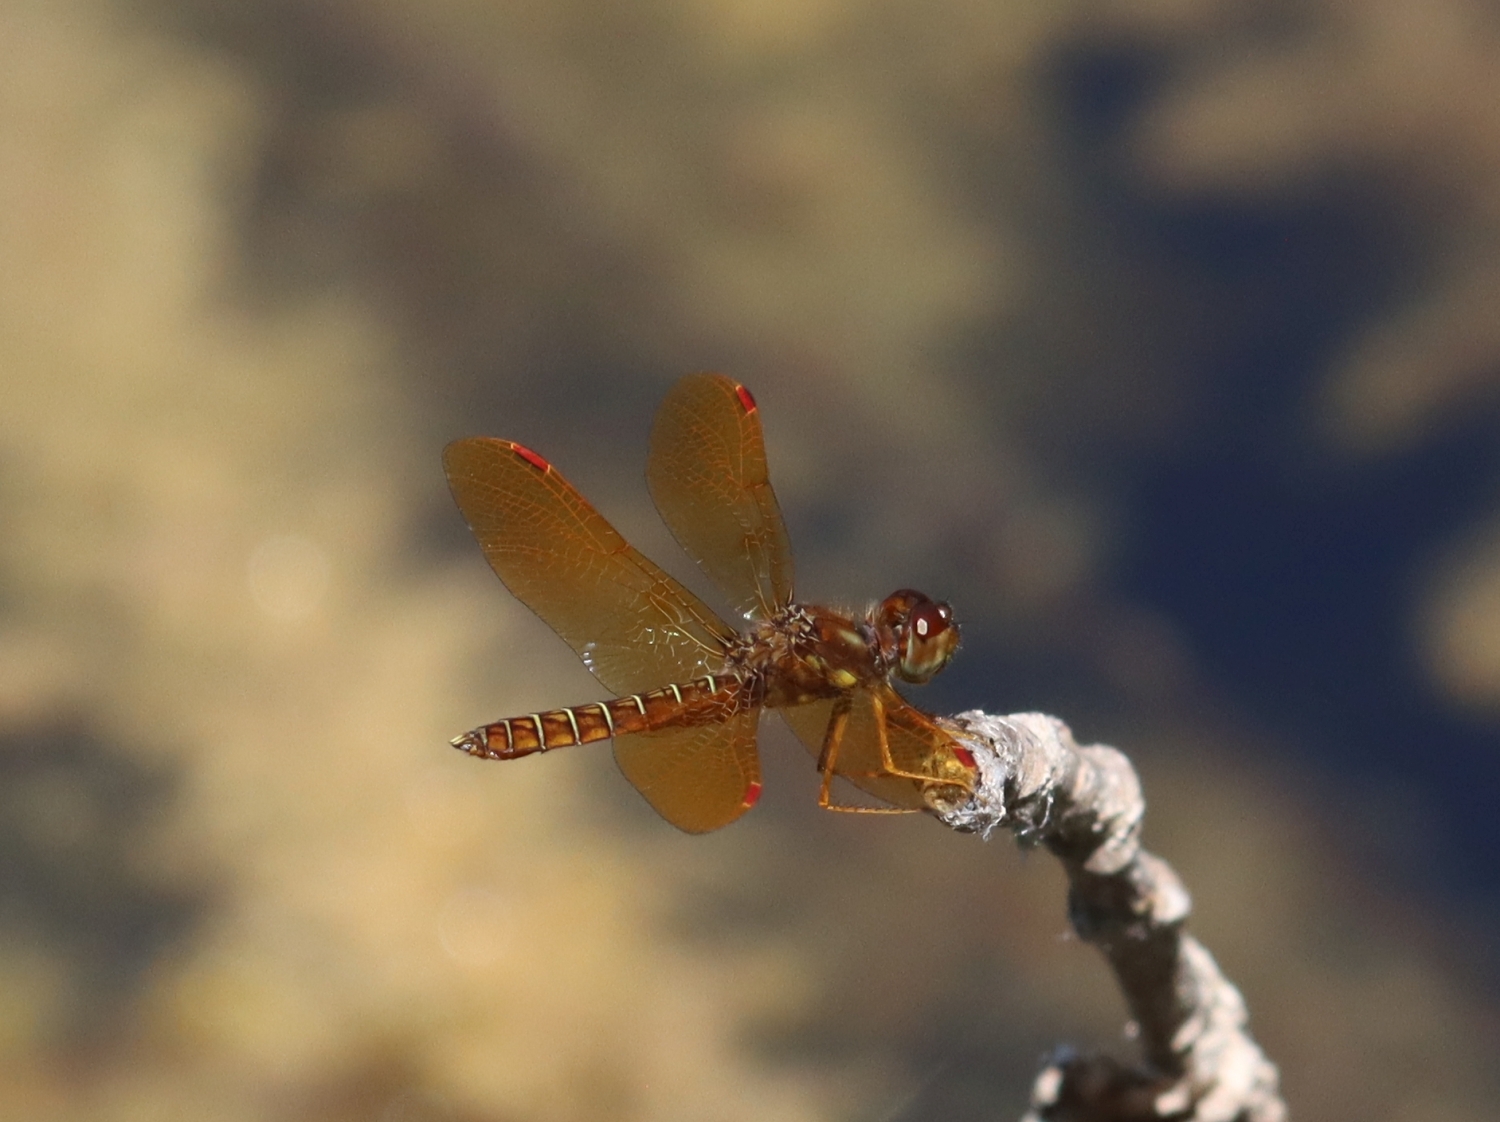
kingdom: Animalia
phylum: Arthropoda
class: Insecta
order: Odonata
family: Libellulidae
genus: Perithemis
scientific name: Perithemis tenera
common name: Eastern amberwing
